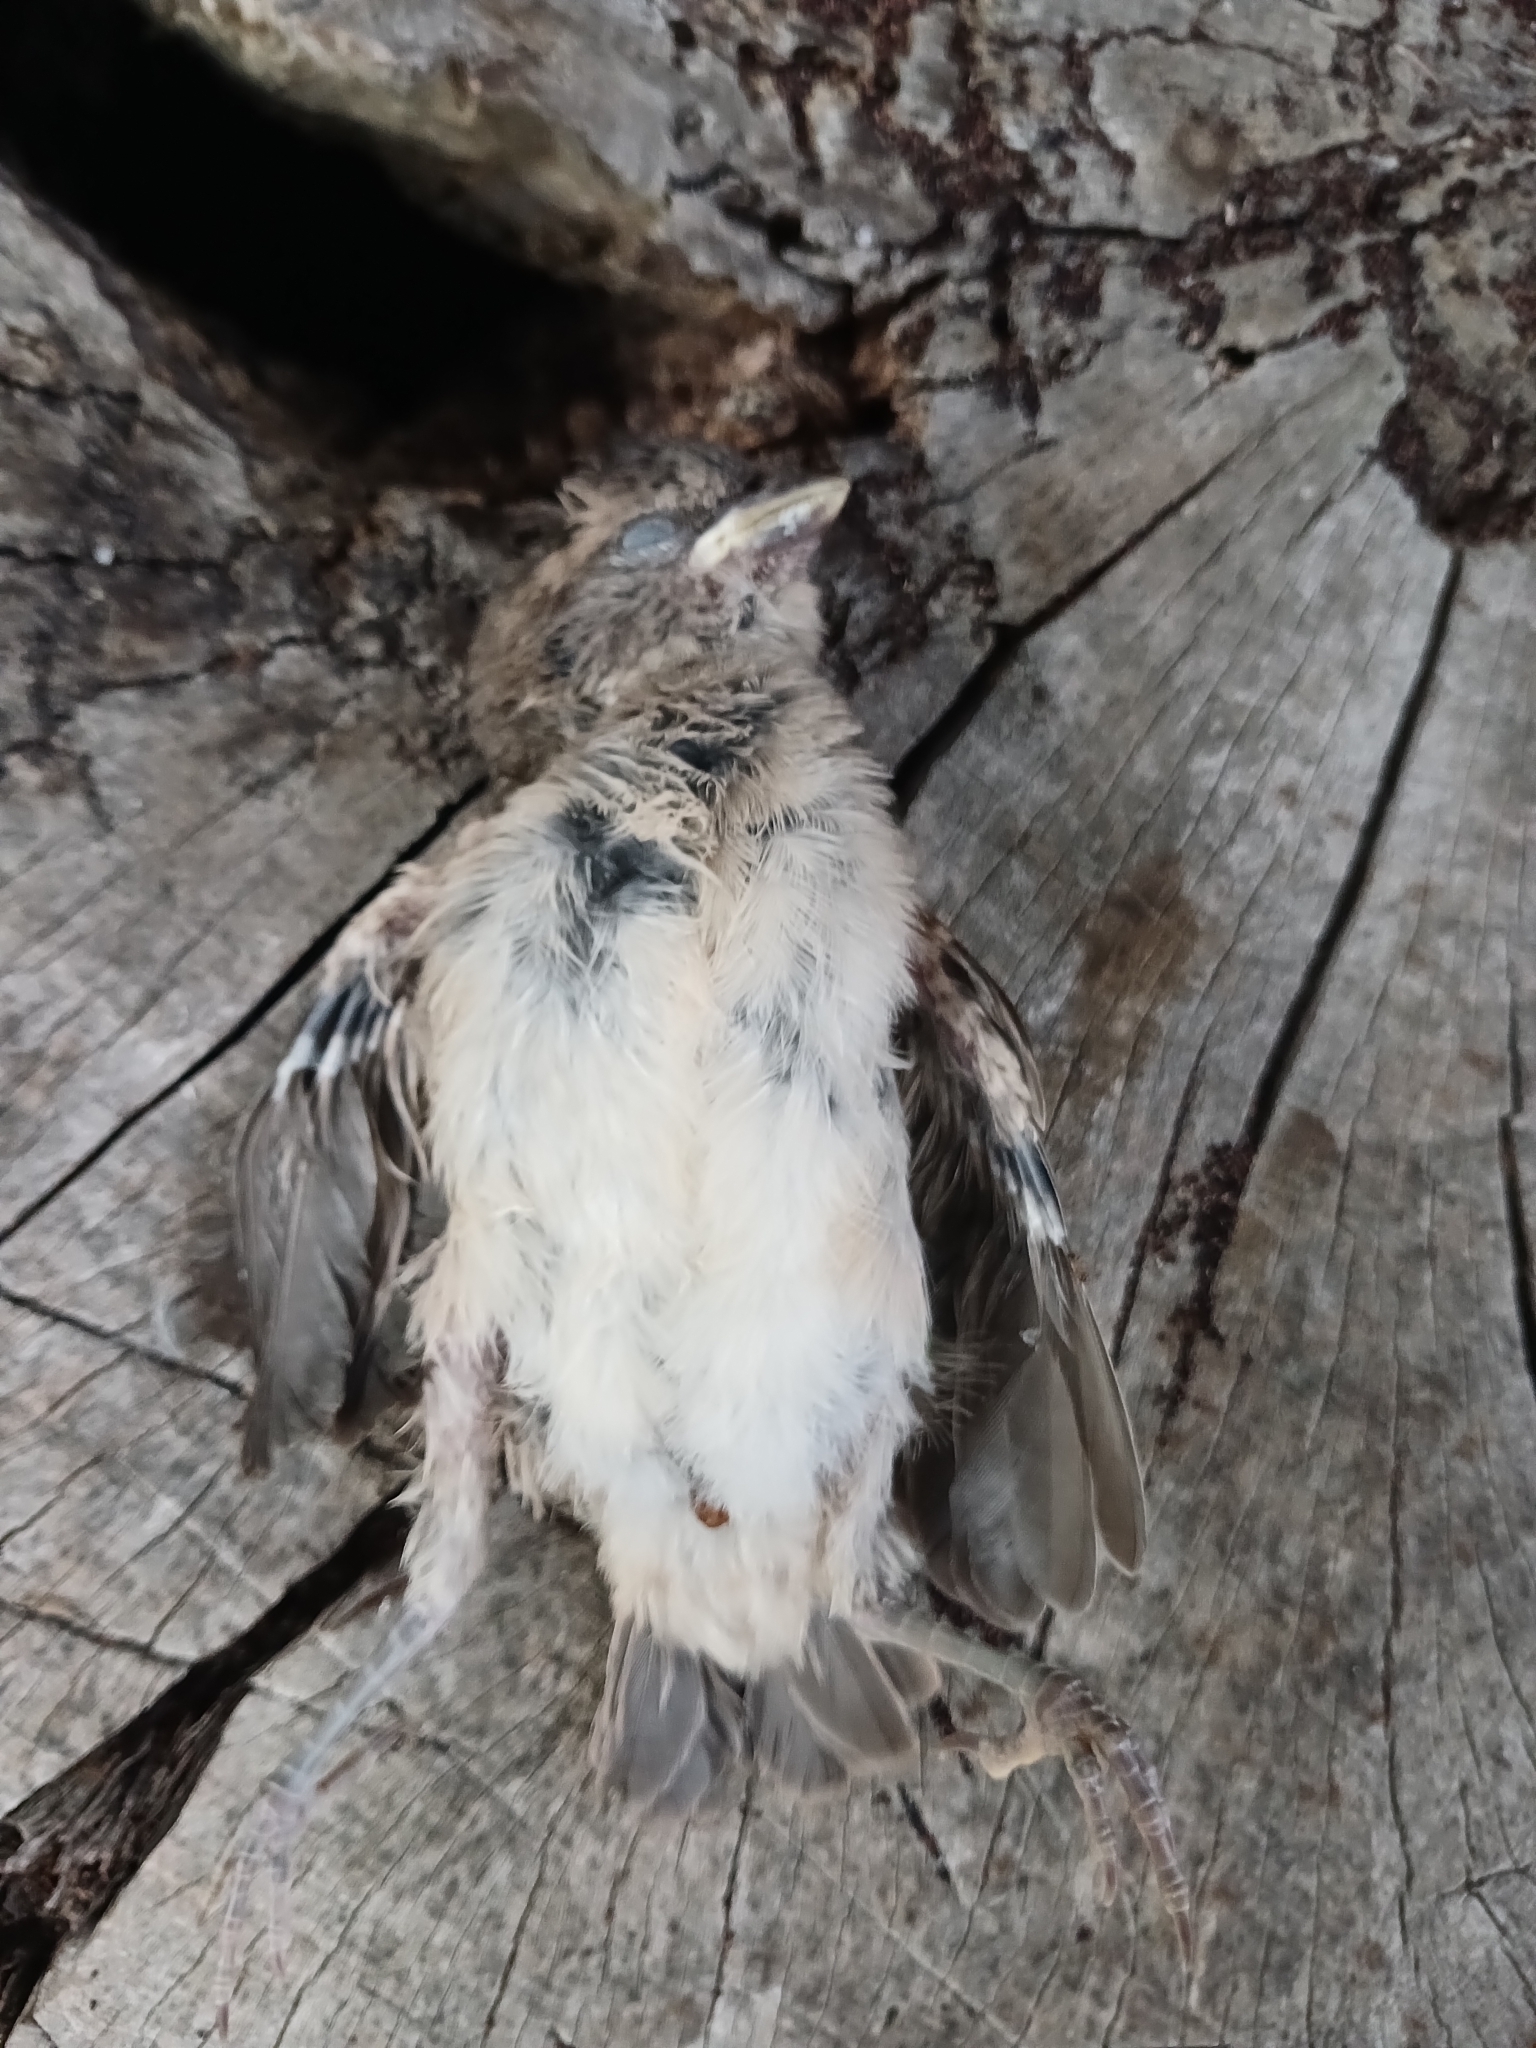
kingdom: Animalia
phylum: Chordata
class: Aves
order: Passeriformes
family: Passeridae
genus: Passer
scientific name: Passer melanurus
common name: Cape sparrow
